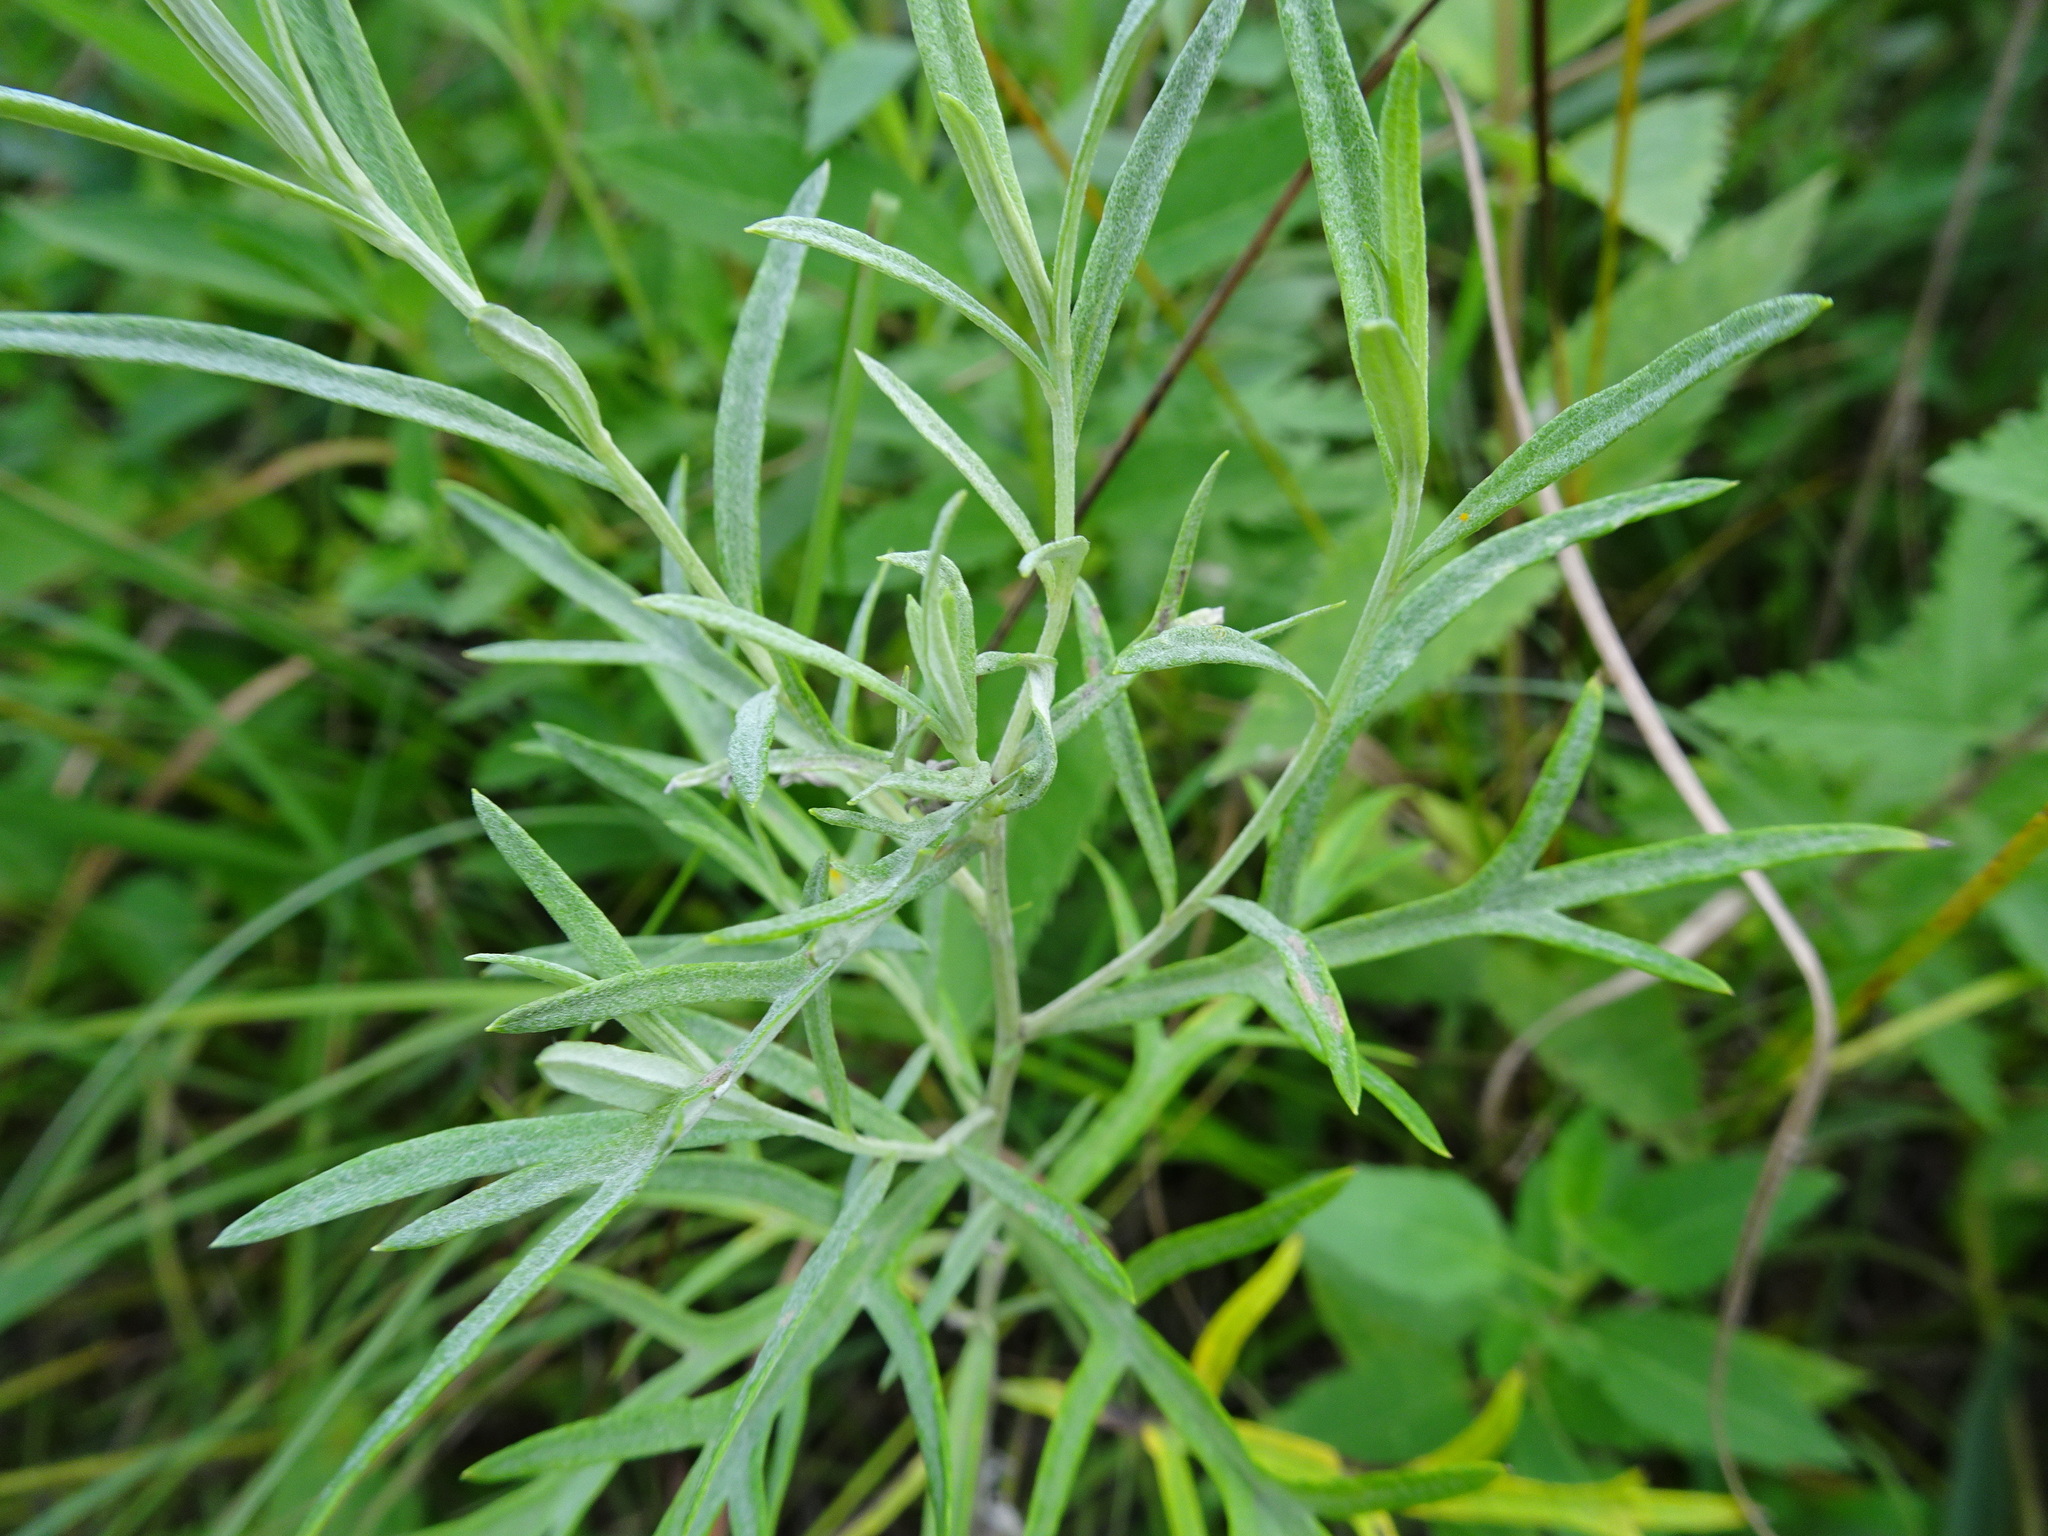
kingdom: Plantae
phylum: Tracheophyta
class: Magnoliopsida
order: Asterales
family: Asteraceae
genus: Artemisia
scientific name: Artemisia ludoviciana
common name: Western mugwort
